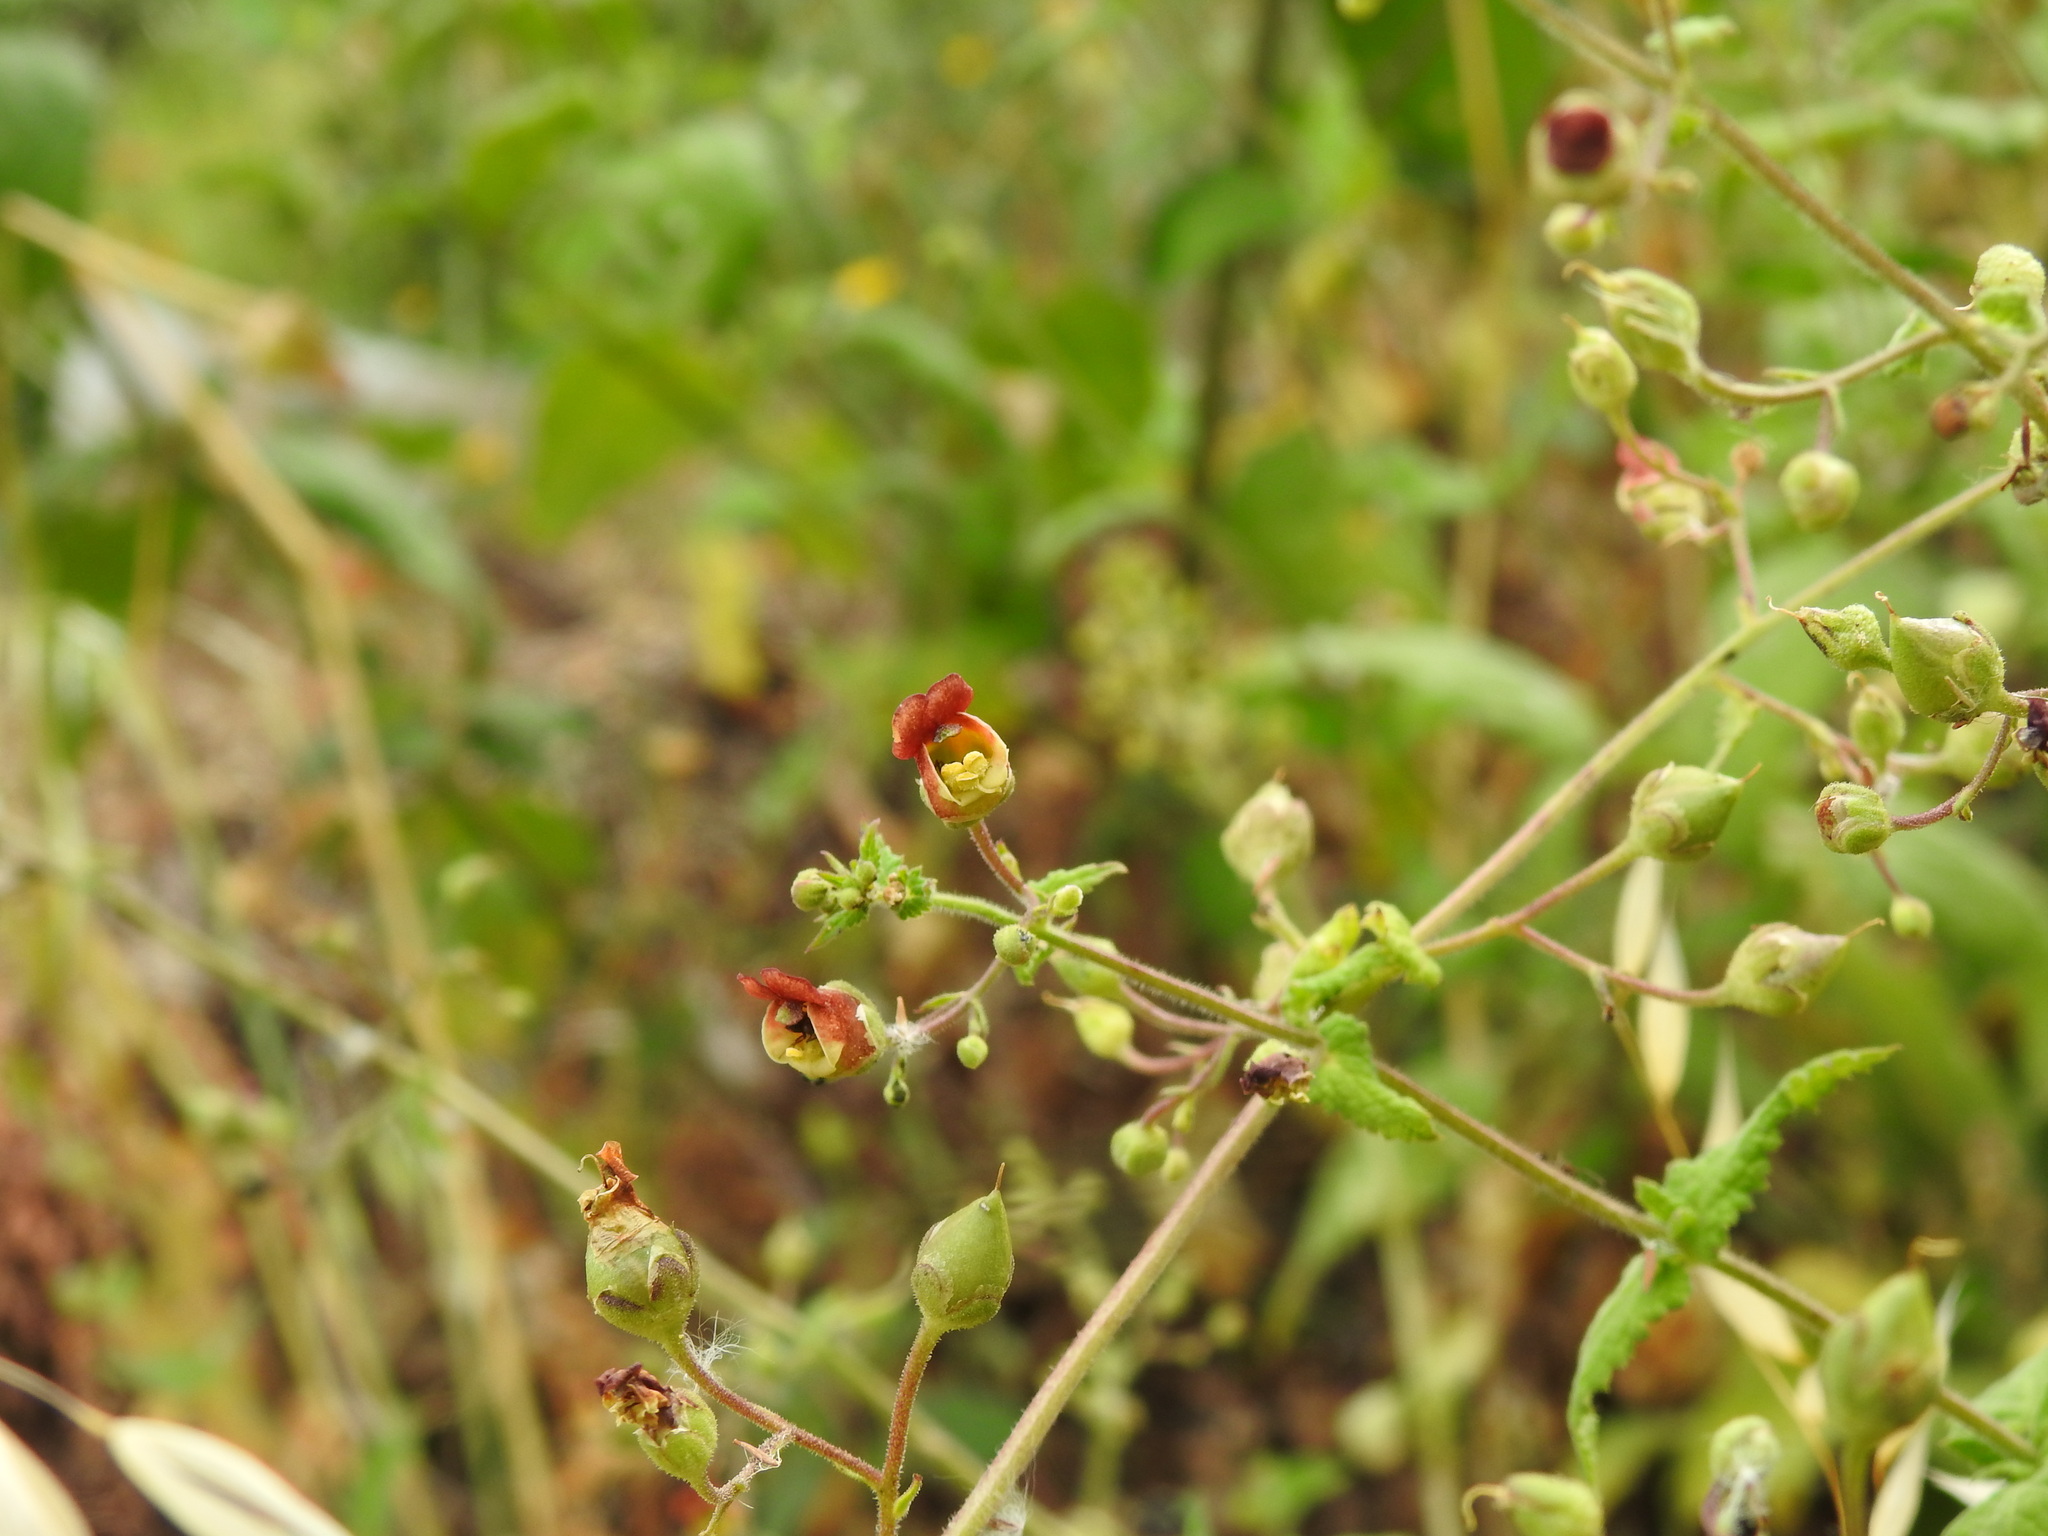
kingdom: Plantae
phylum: Tracheophyta
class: Magnoliopsida
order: Lamiales
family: Scrophulariaceae
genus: Scrophularia
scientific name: Scrophularia scorodonia
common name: Balm-leaved figwort
